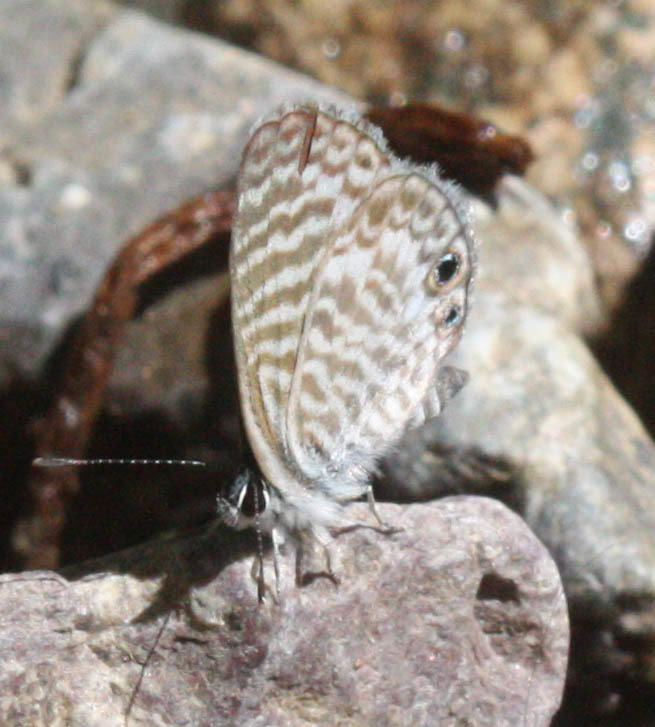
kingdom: Animalia
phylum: Arthropoda
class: Insecta
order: Lepidoptera
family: Lycaenidae
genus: Leptotes
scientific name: Leptotes marina
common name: Marine blue
